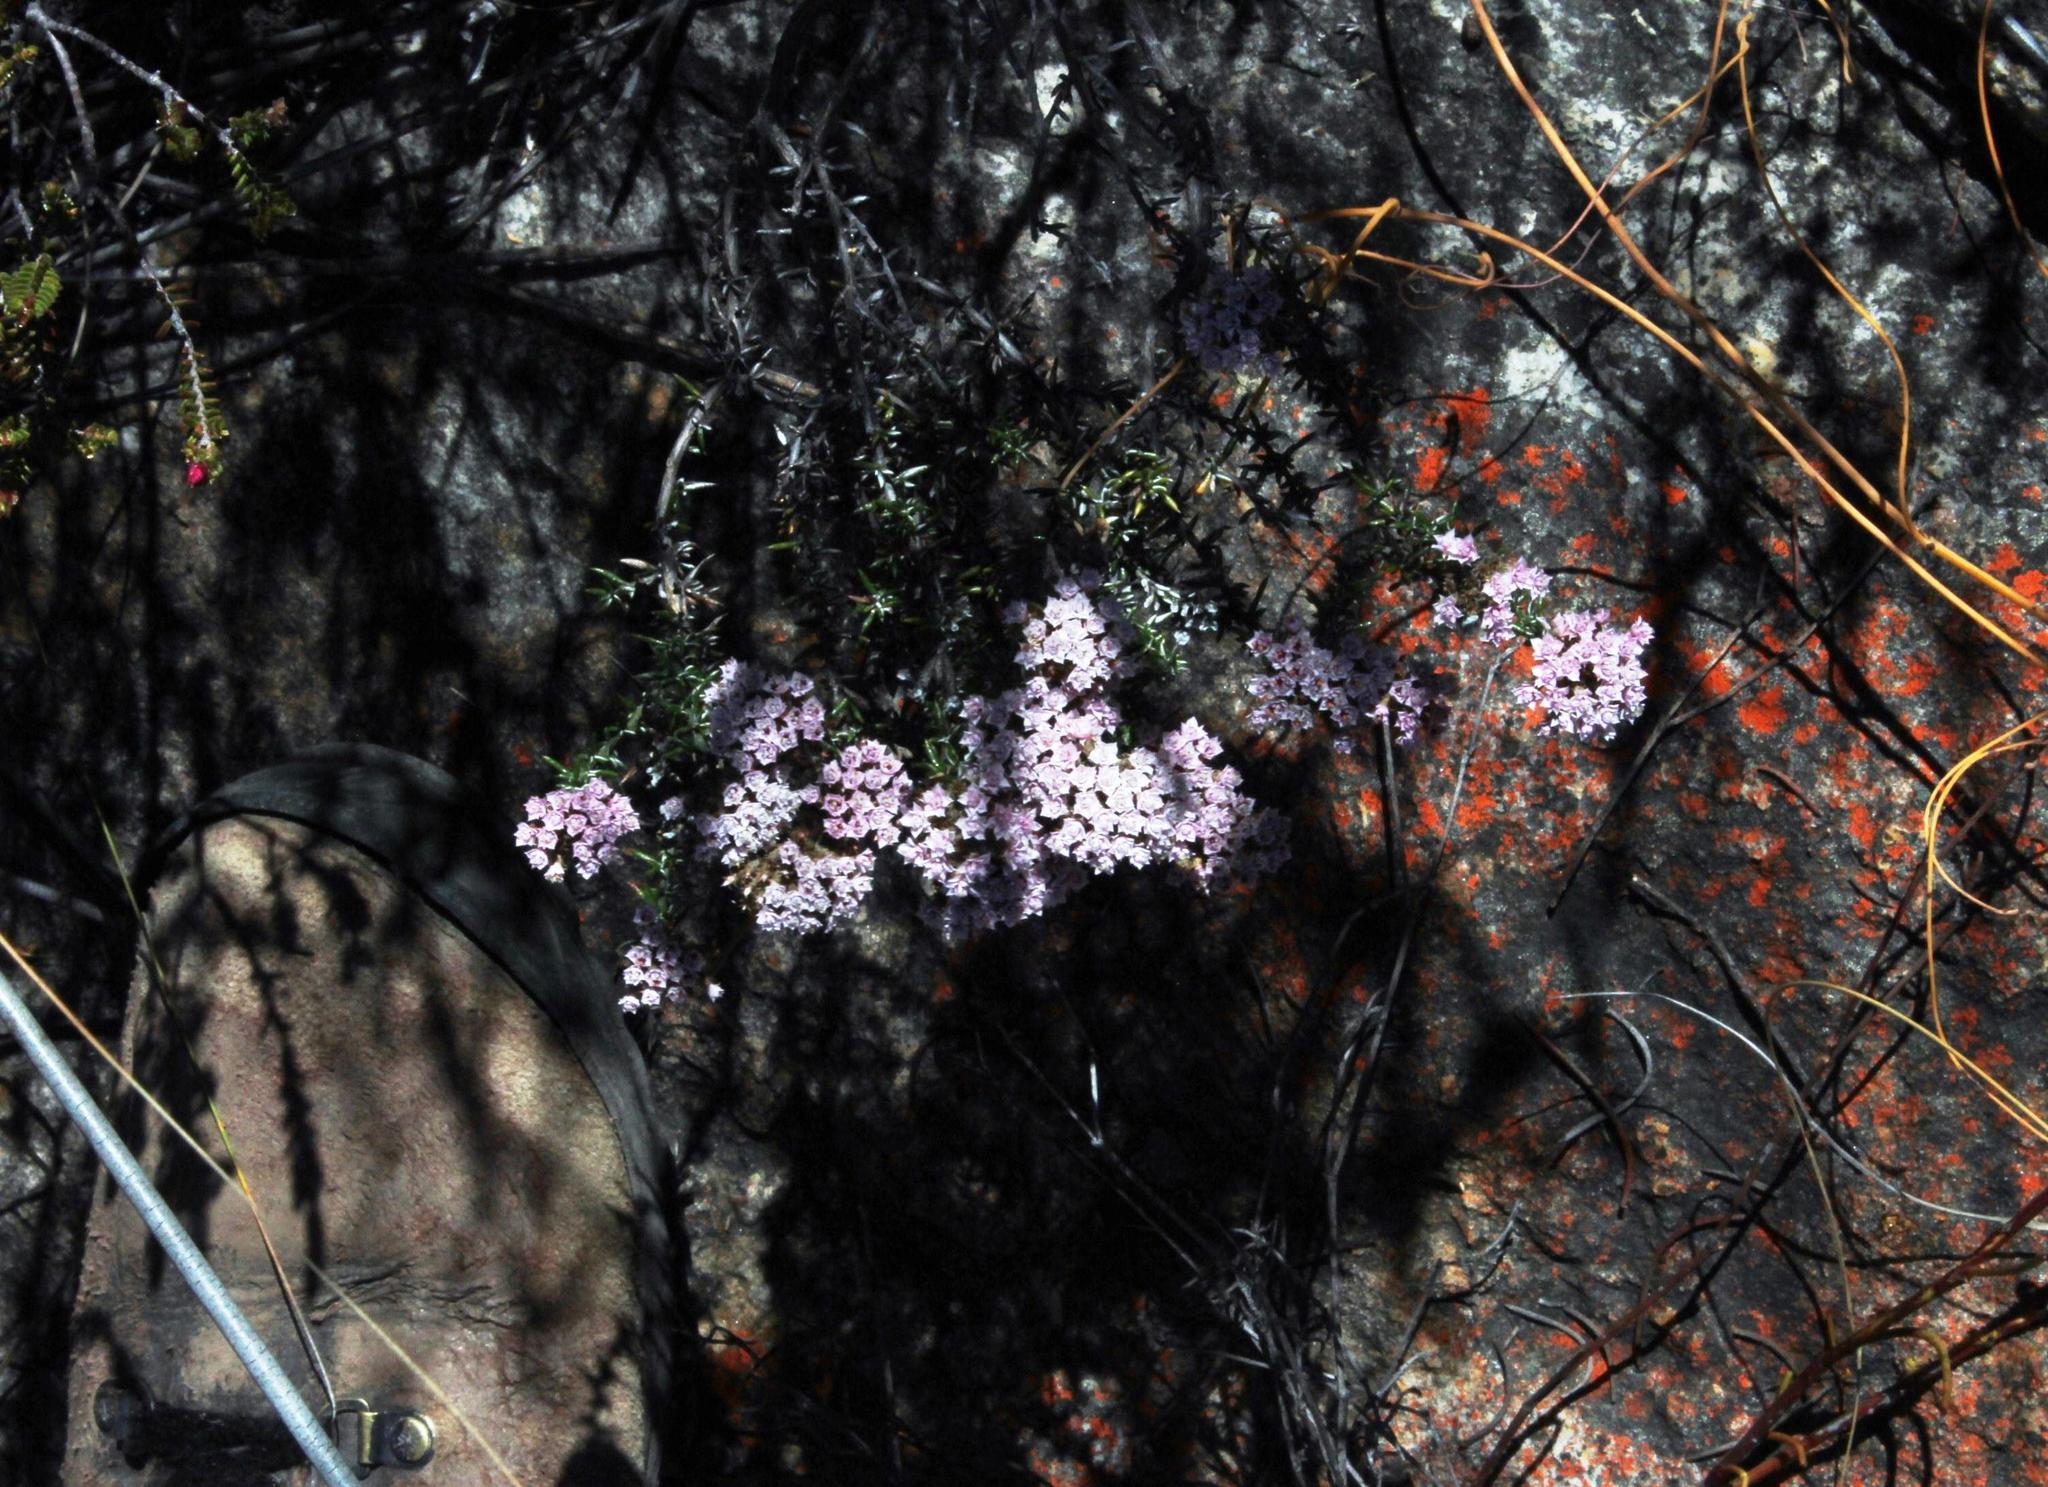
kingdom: Plantae
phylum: Tracheophyta
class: Magnoliopsida
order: Asterales
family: Asteraceae
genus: Metalasia
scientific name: Metalasia massonii
